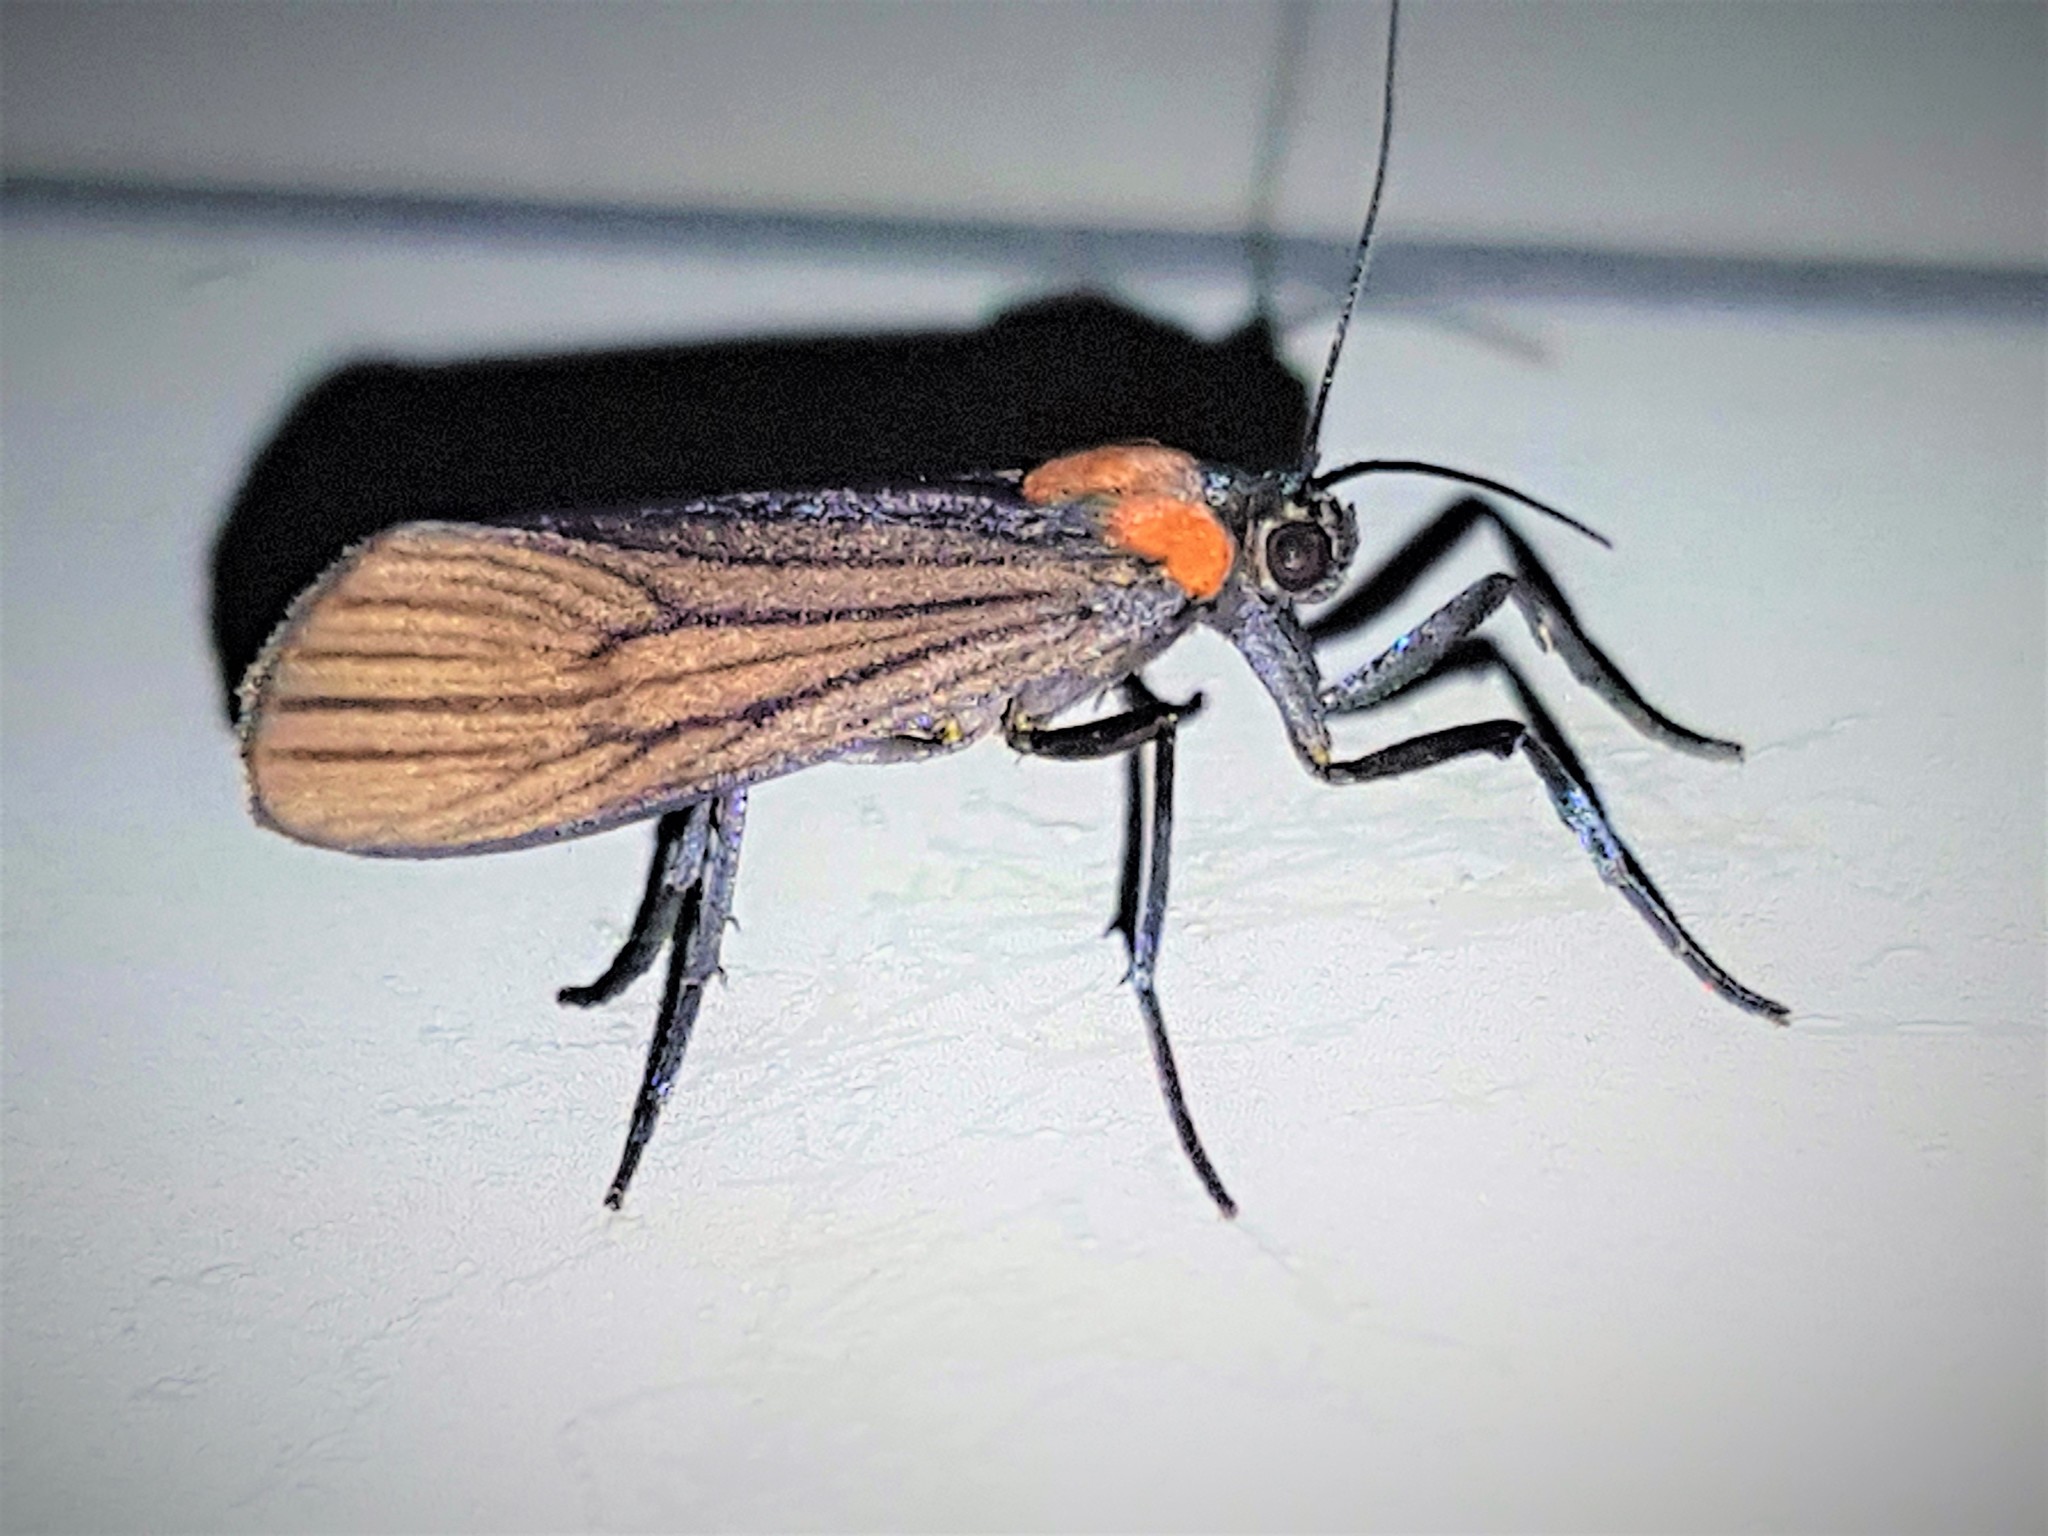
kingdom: Animalia
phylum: Arthropoda
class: Insecta
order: Lepidoptera
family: Erebidae
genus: Balbura
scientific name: Balbura intervenata
